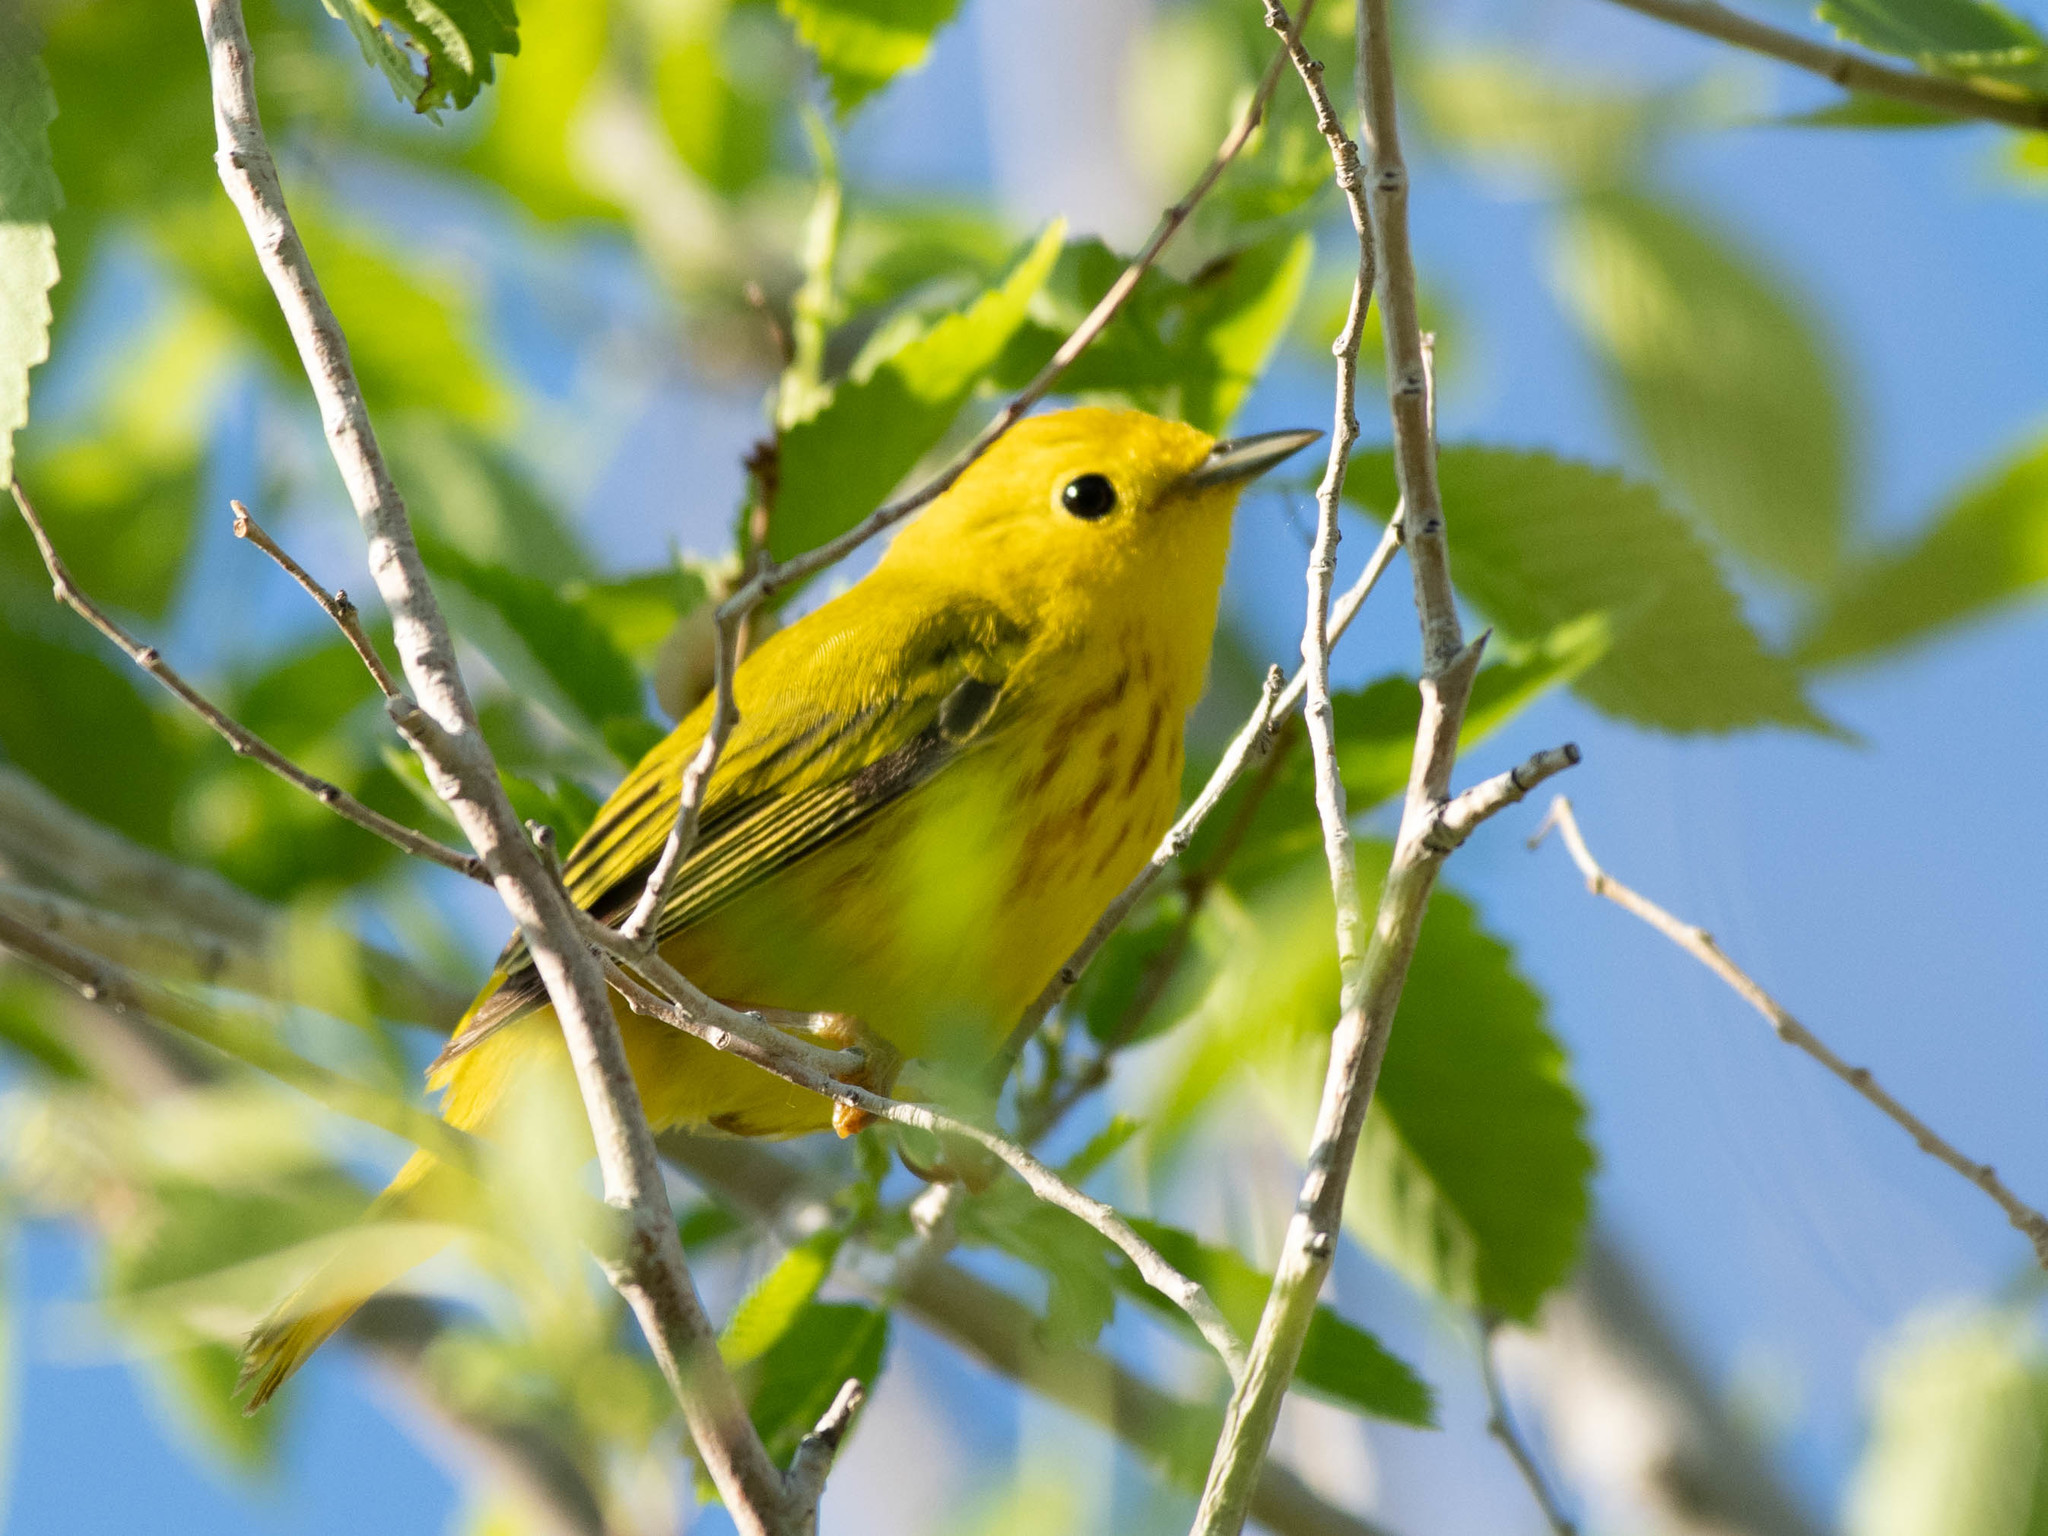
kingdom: Animalia
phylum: Chordata
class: Aves
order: Passeriformes
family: Parulidae
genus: Setophaga
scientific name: Setophaga petechia
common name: Yellow warbler
